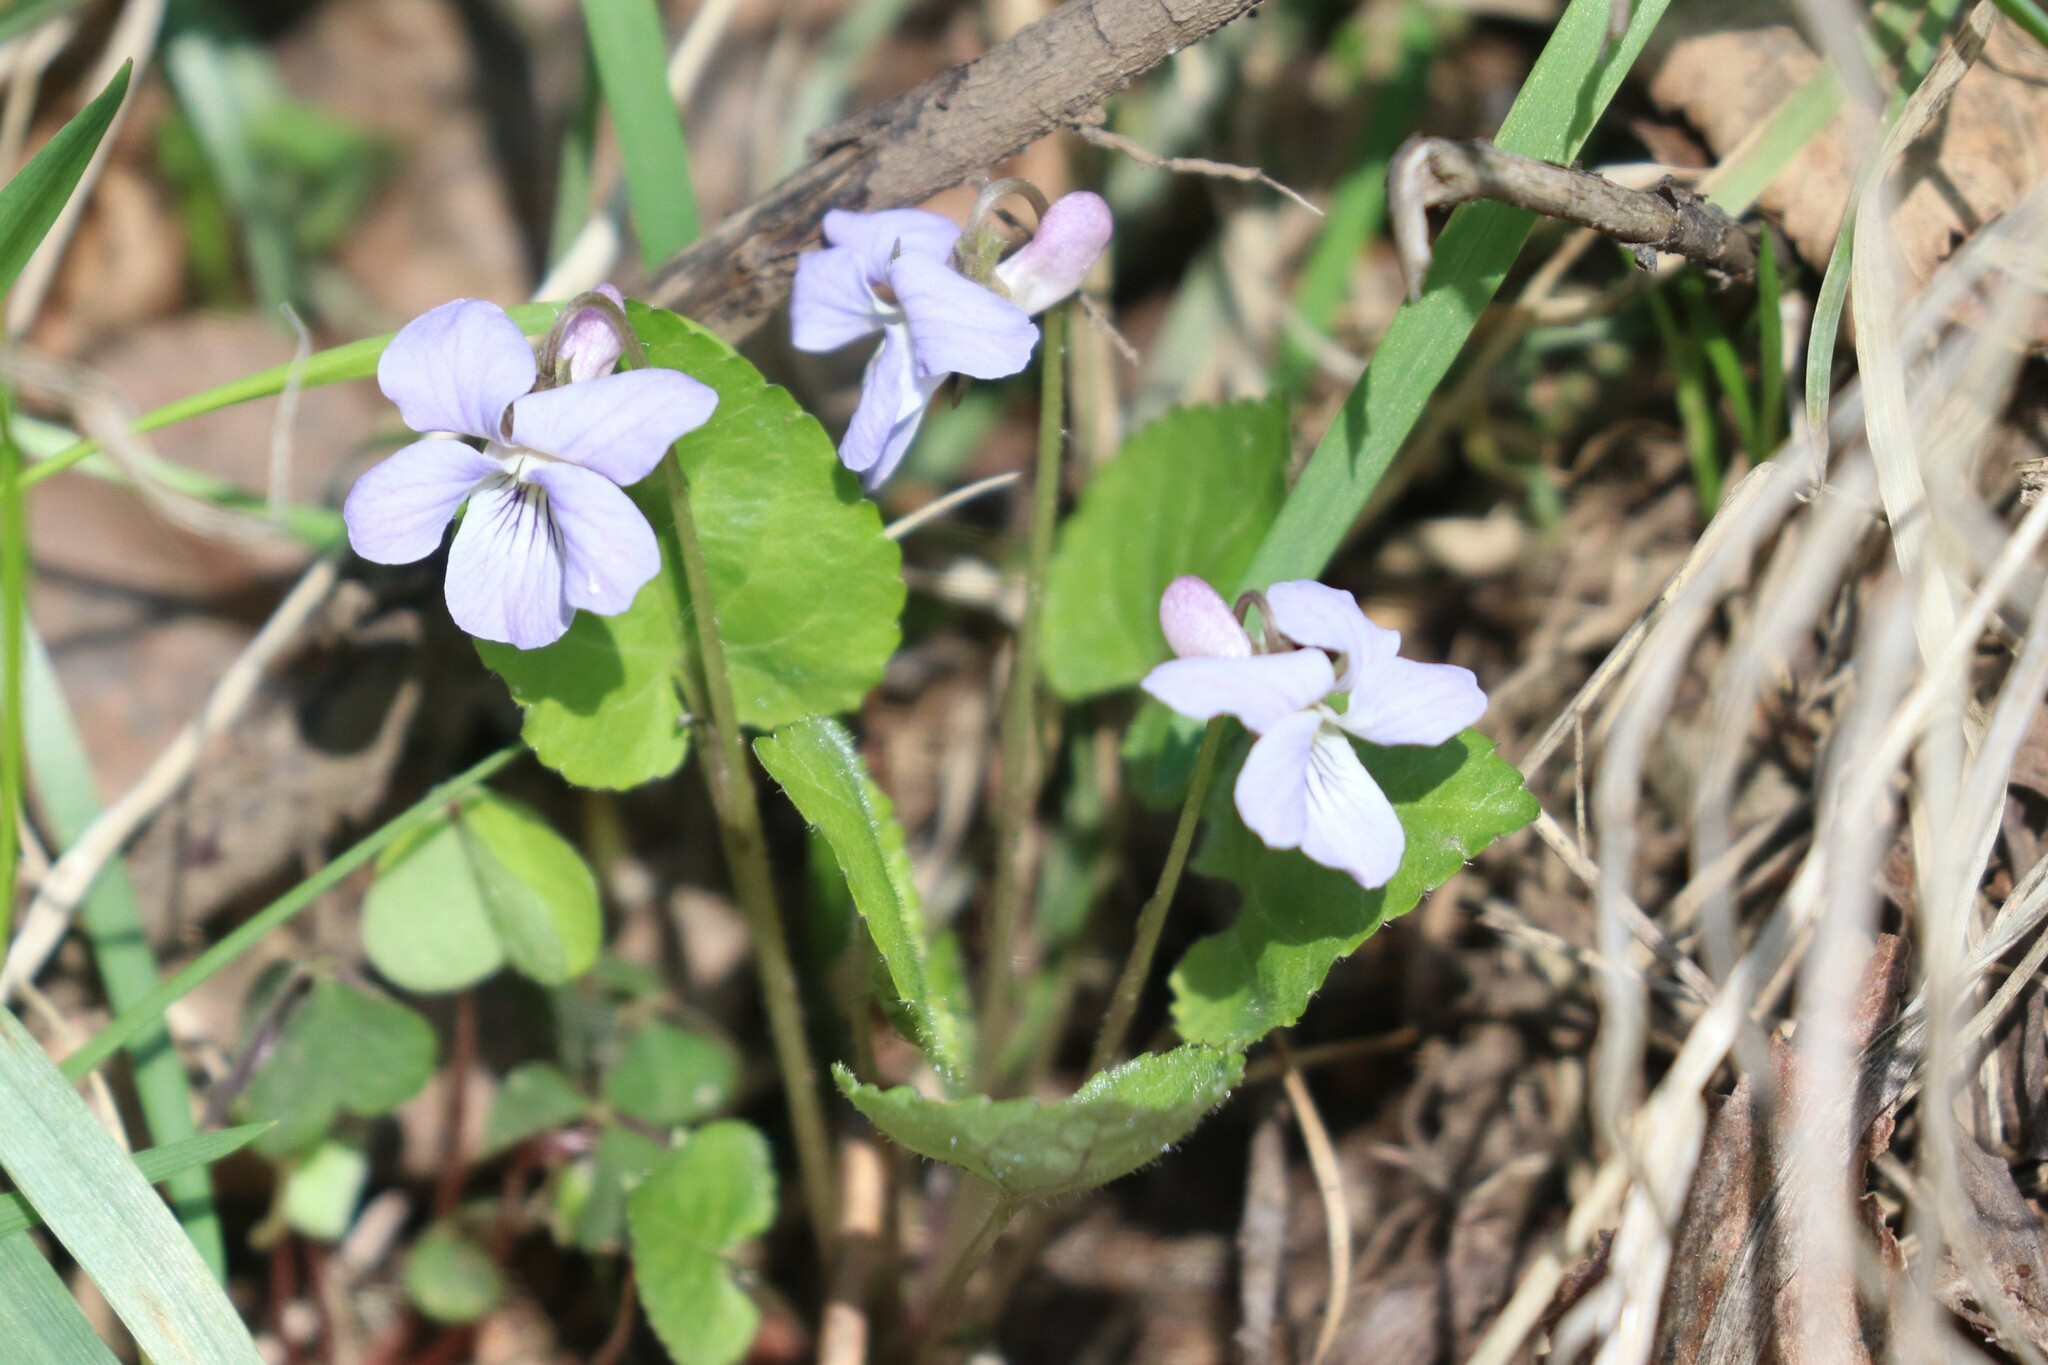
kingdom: Plantae
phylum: Tracheophyta
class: Magnoliopsida
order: Malpighiales
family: Violaceae
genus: Viola
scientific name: Viola selkirkii
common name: Selkirk's violet
